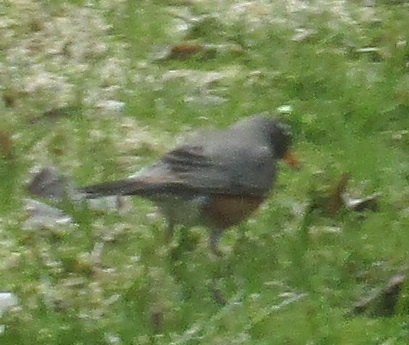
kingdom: Animalia
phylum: Chordata
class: Aves
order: Passeriformes
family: Turdidae
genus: Turdus
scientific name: Turdus migratorius
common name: American robin
